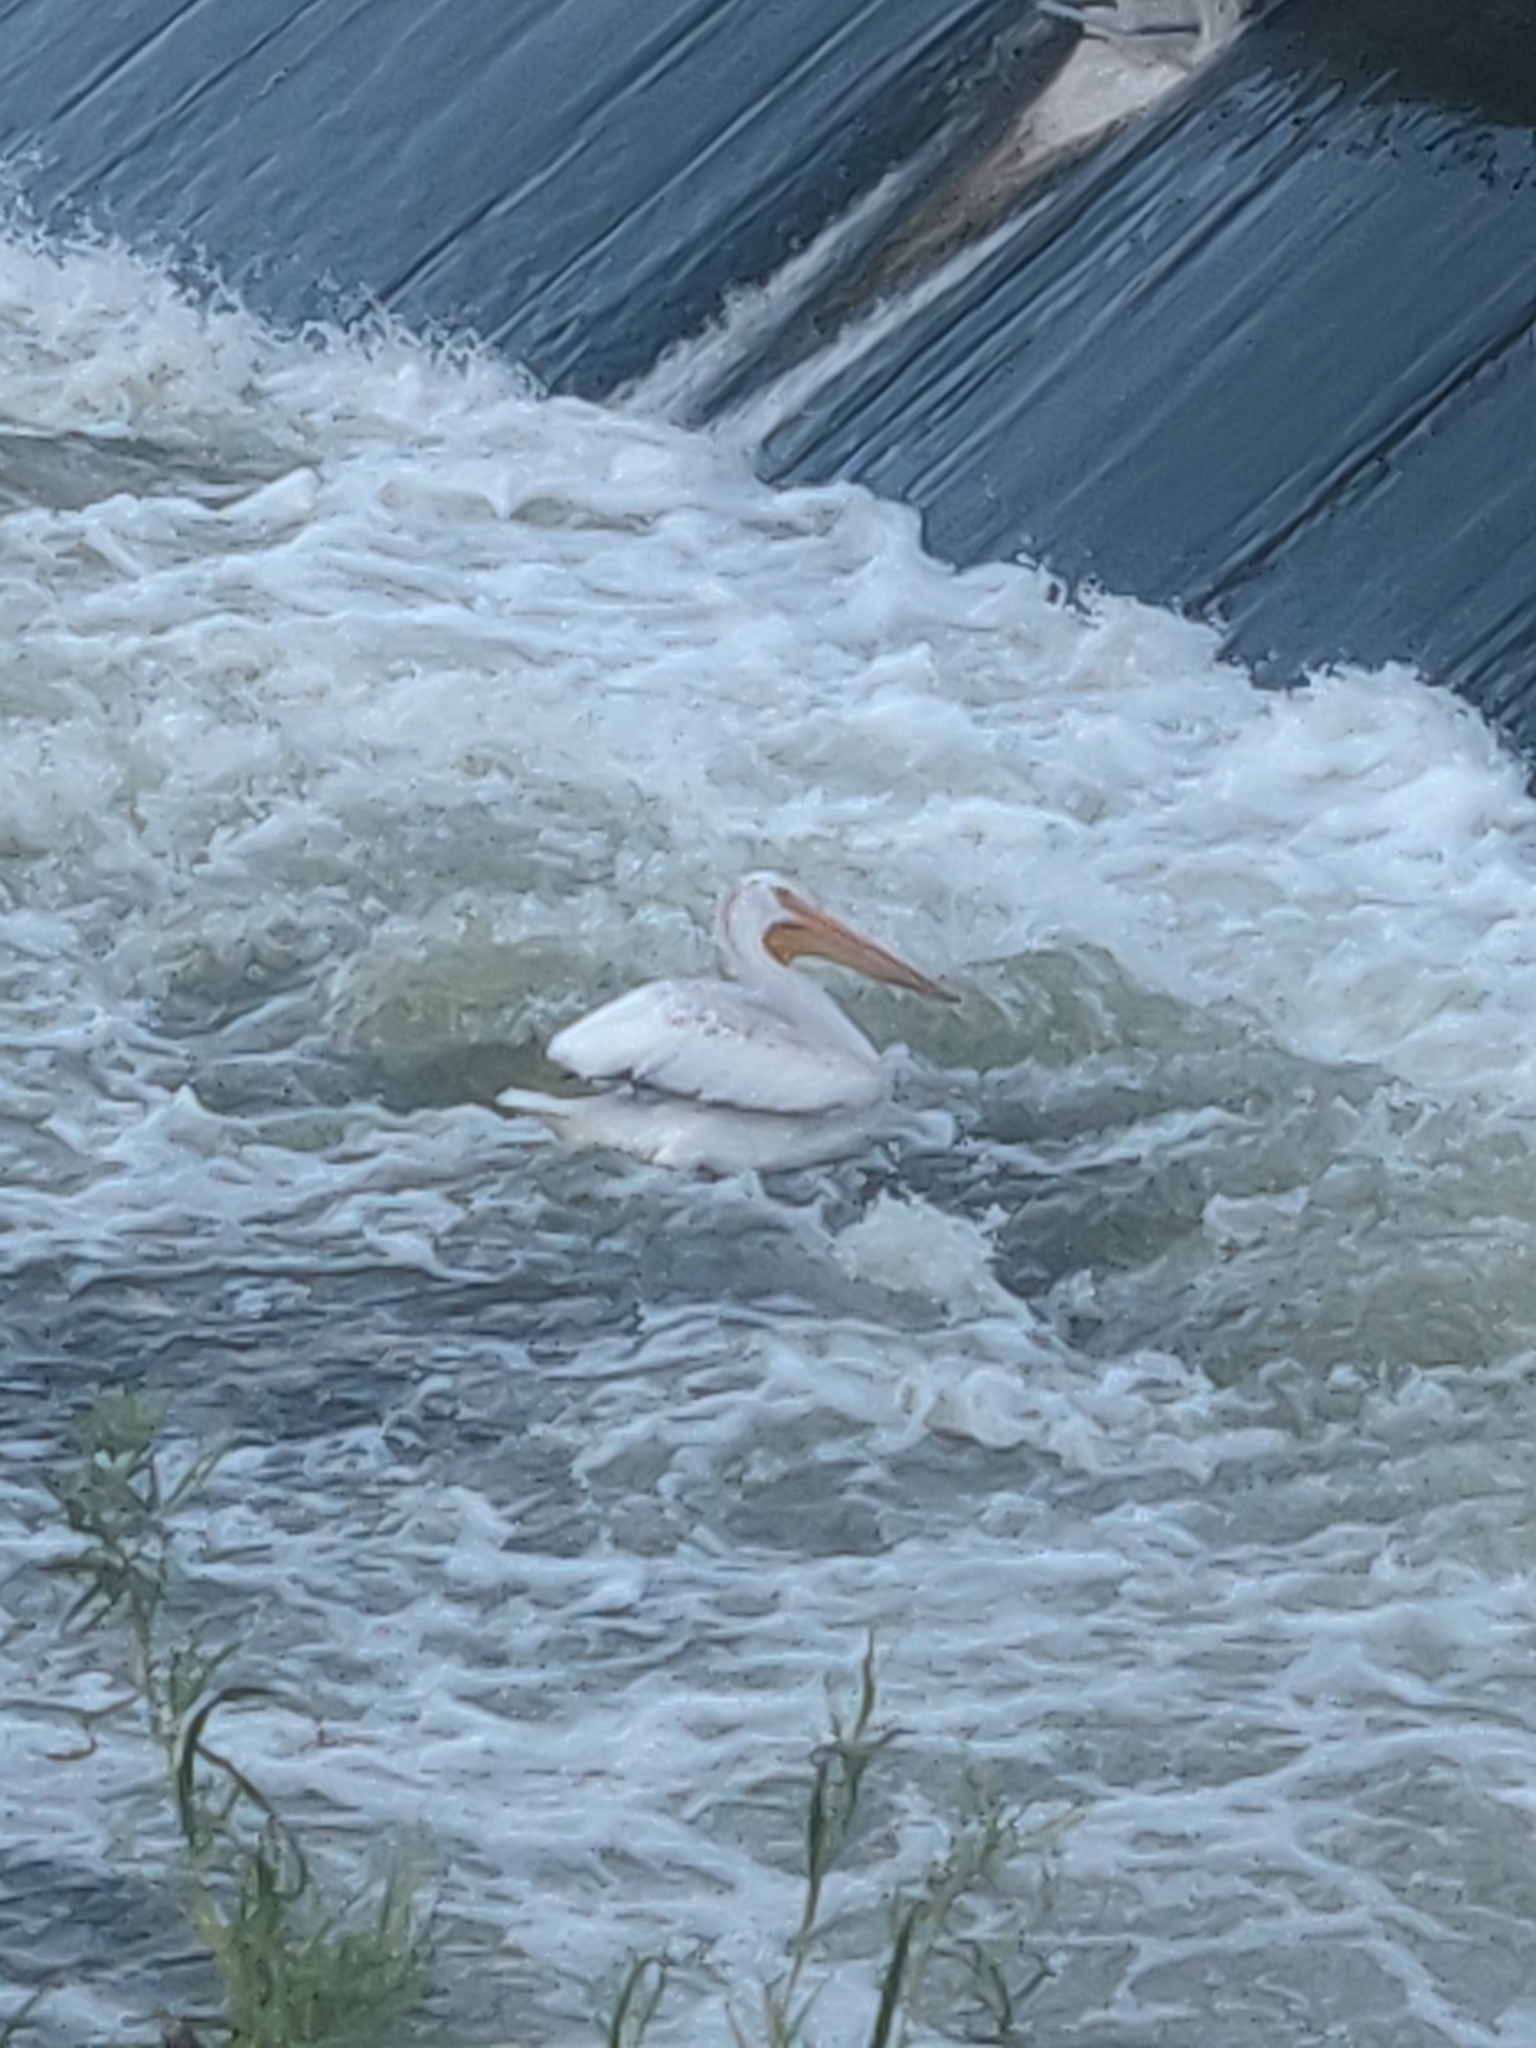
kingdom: Animalia
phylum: Chordata
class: Aves
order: Pelecaniformes
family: Pelecanidae
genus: Pelecanus
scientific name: Pelecanus erythrorhynchos
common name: American white pelican
